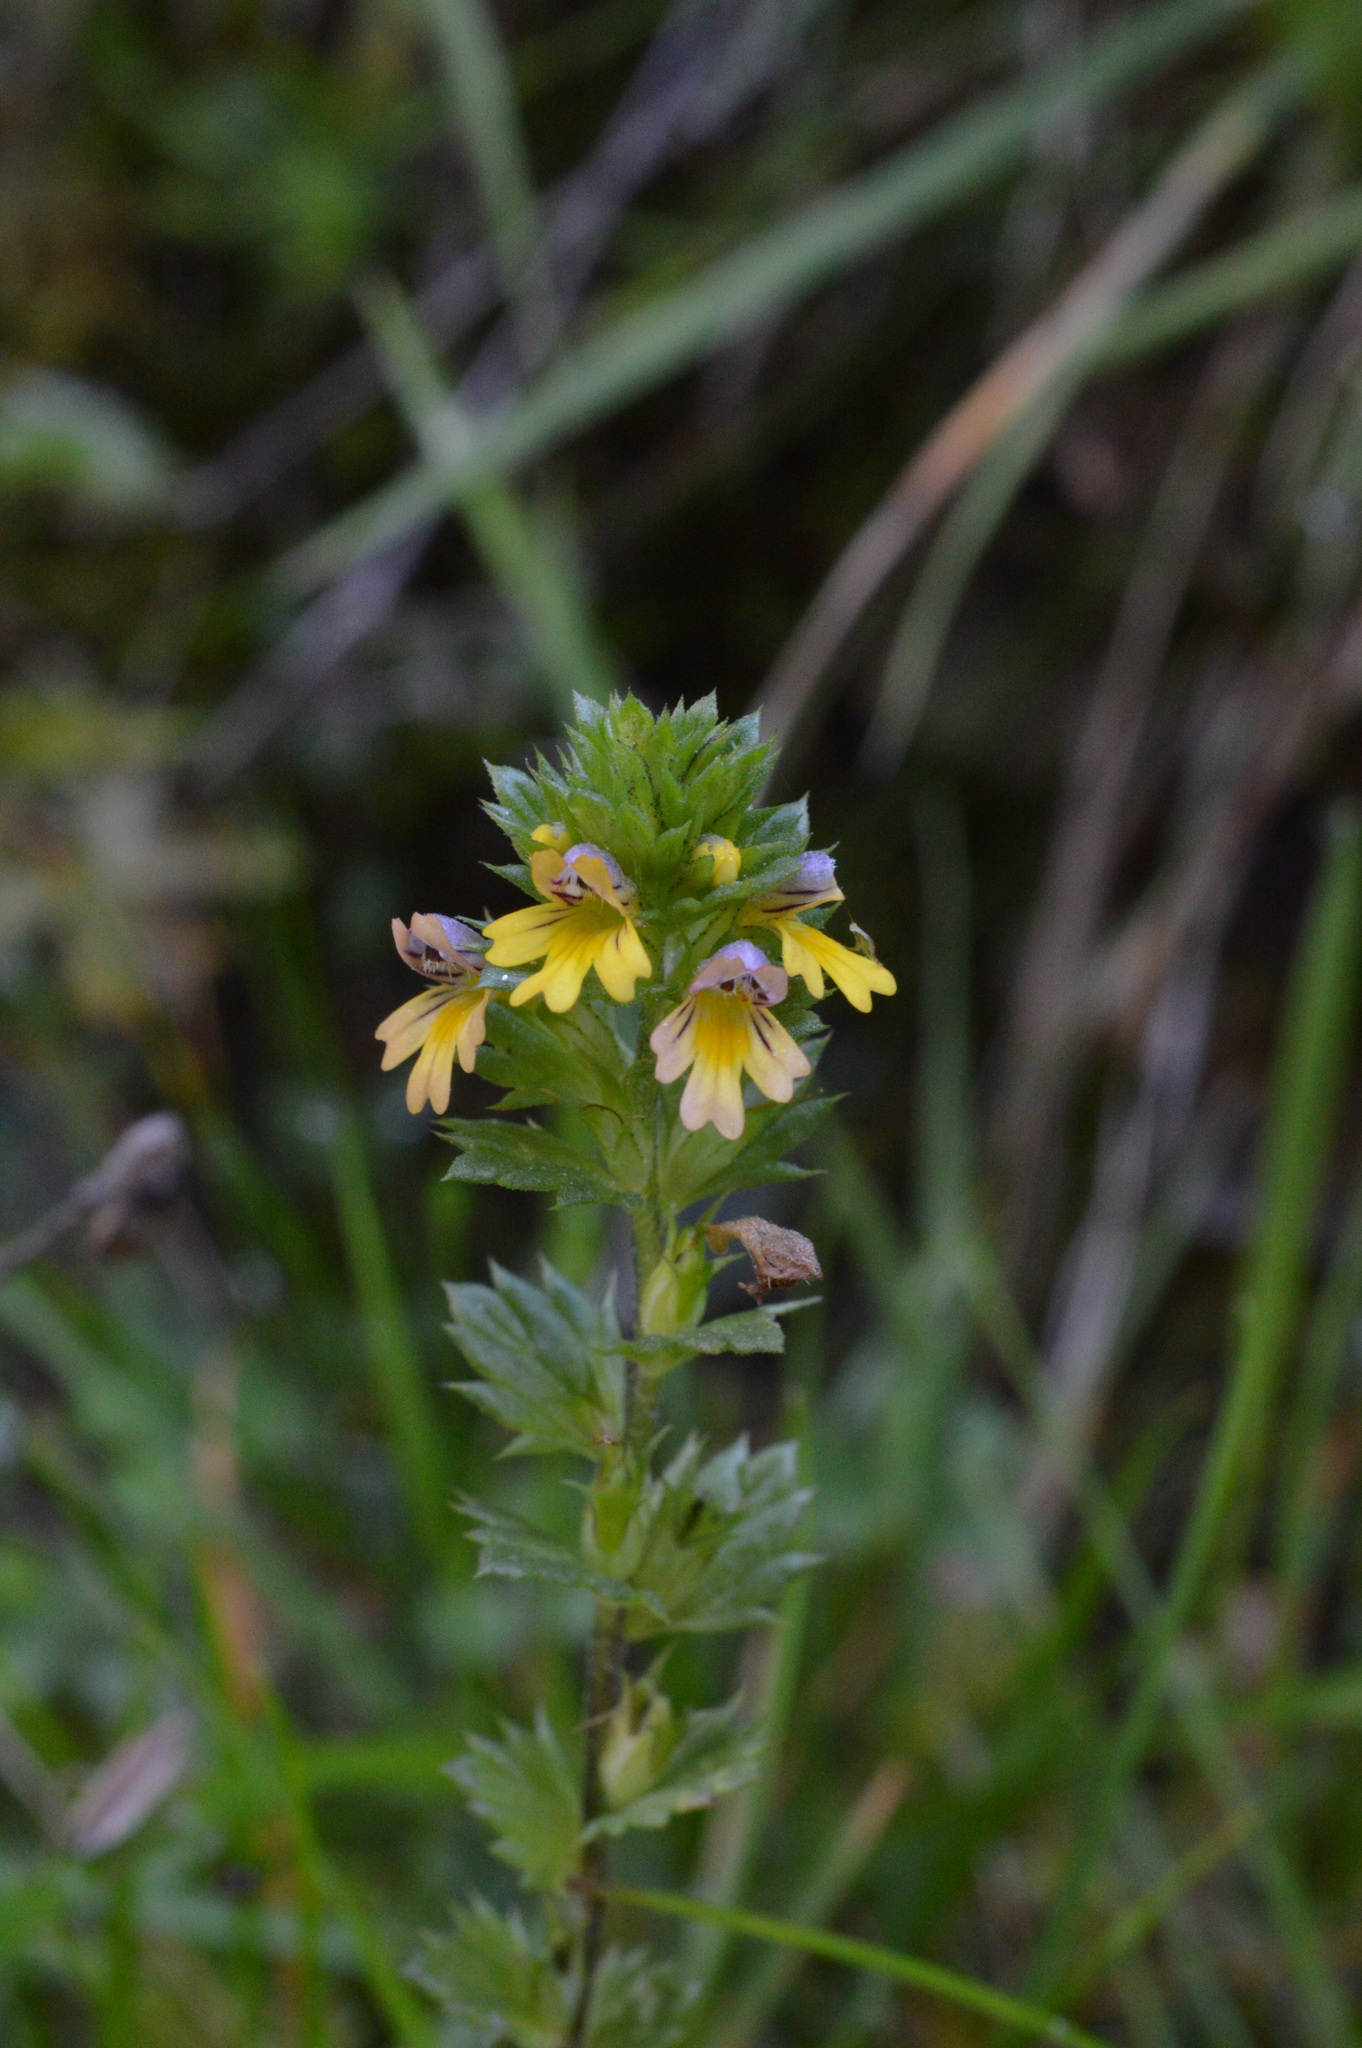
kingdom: Plantae
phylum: Tracheophyta
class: Magnoliopsida
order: Lamiales
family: Orobanchaceae
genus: Euphrasia
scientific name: Euphrasia minima
